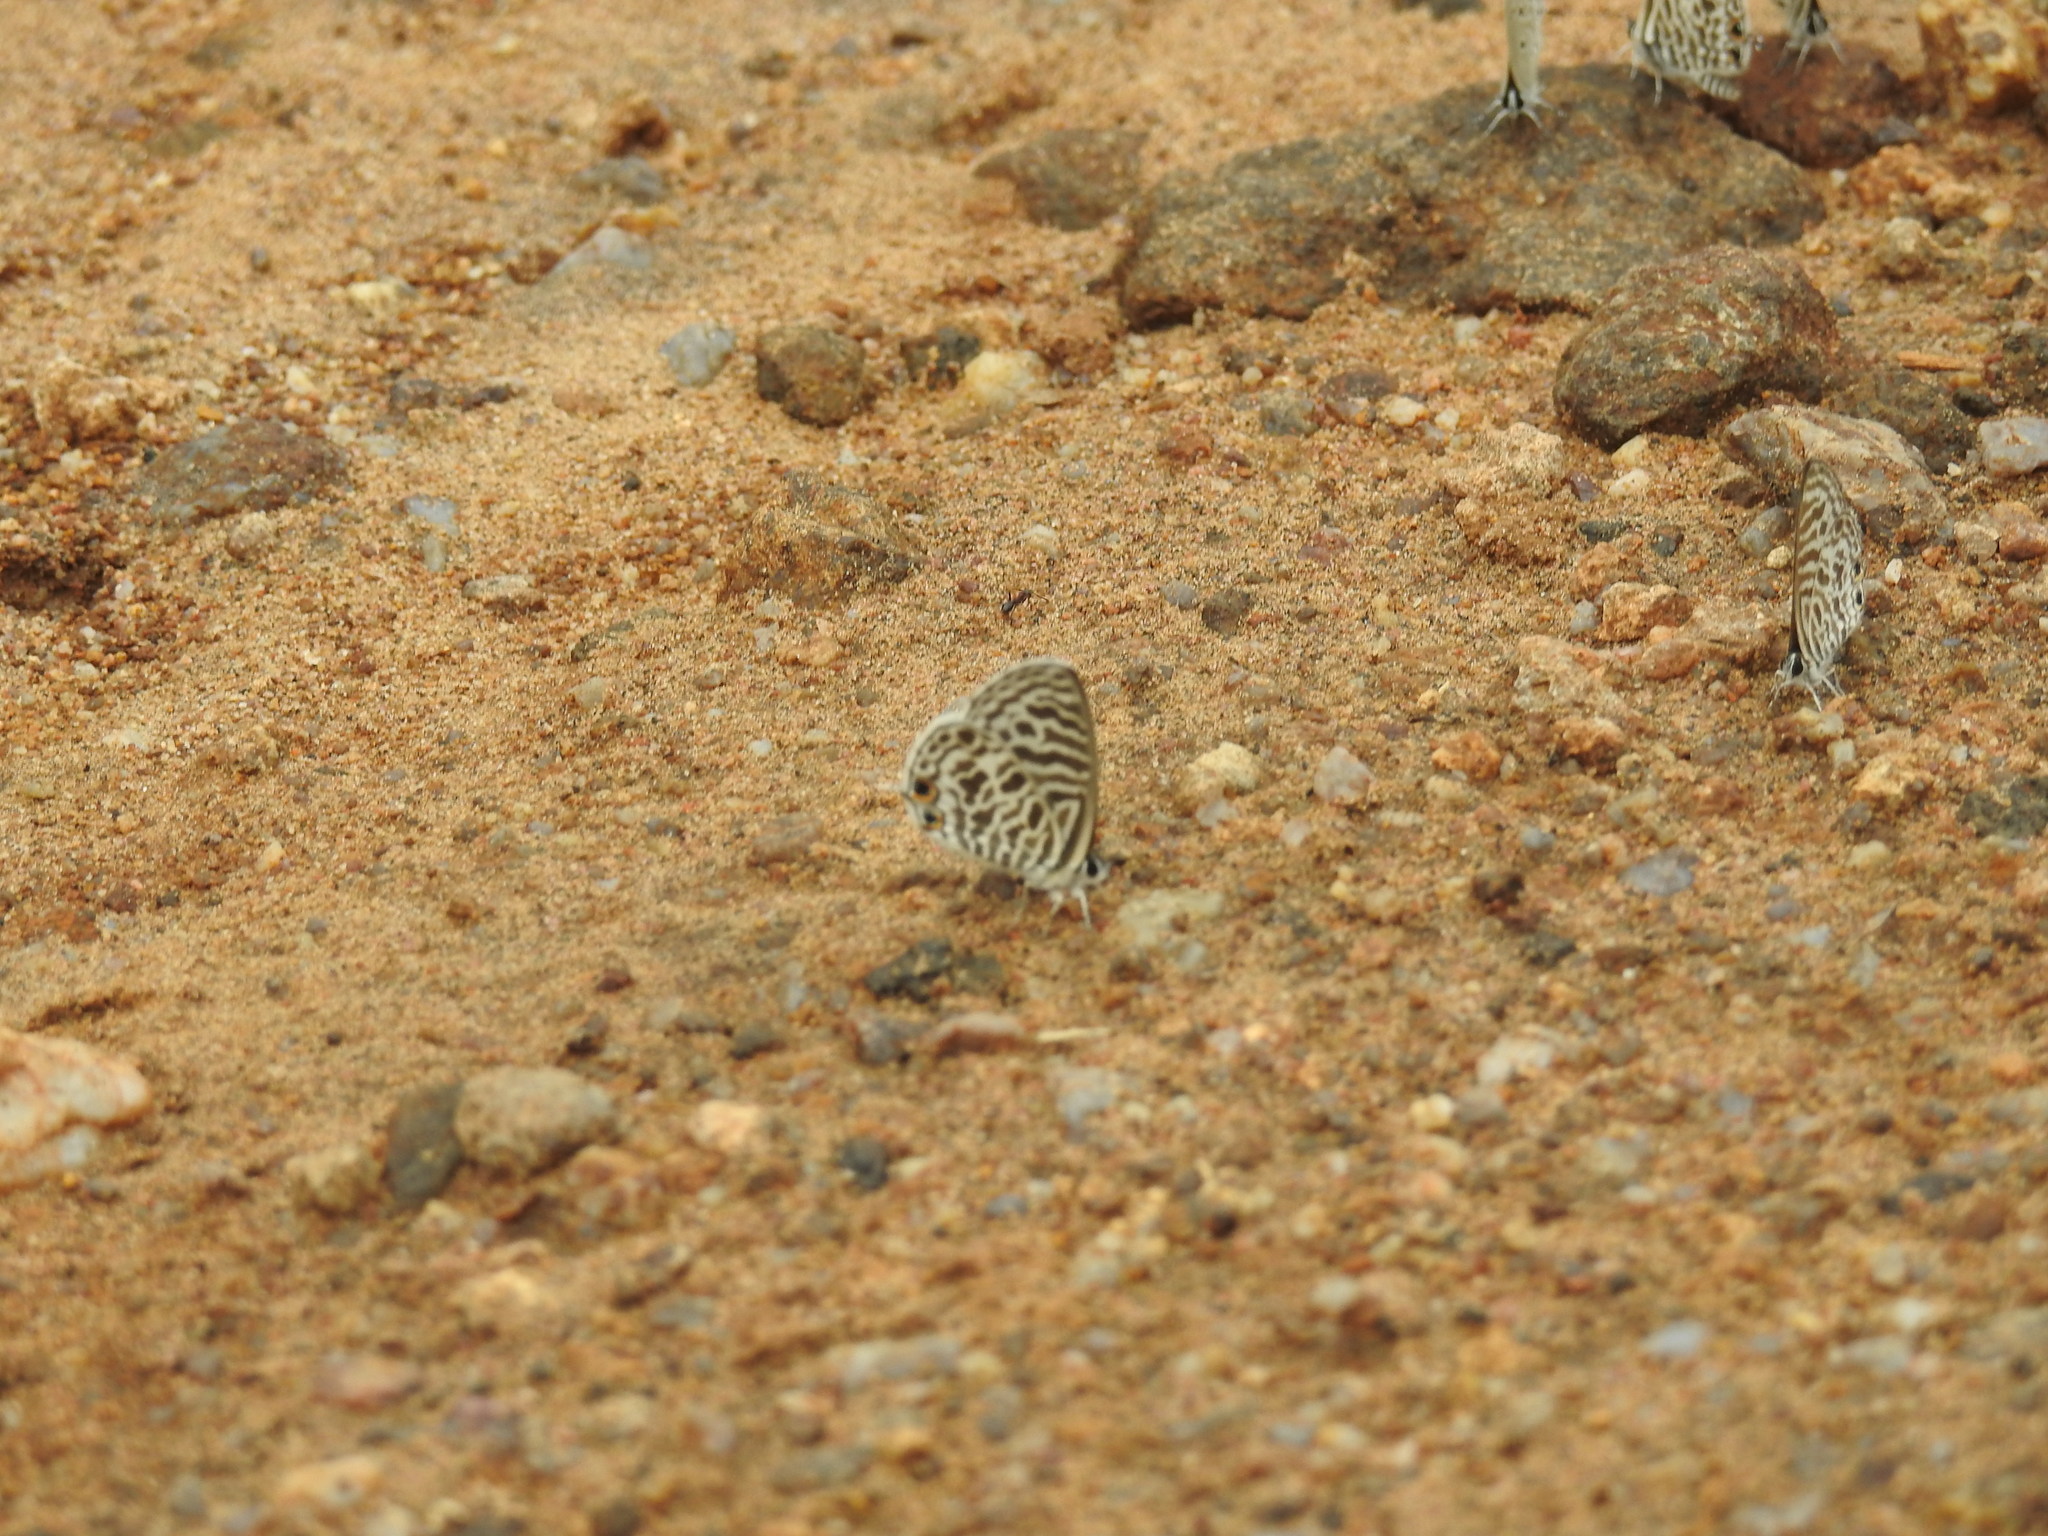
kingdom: Animalia
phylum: Arthropoda
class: Insecta
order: Lepidoptera
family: Lycaenidae
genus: Leptotes
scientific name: Leptotes plinius
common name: Zebra blue
